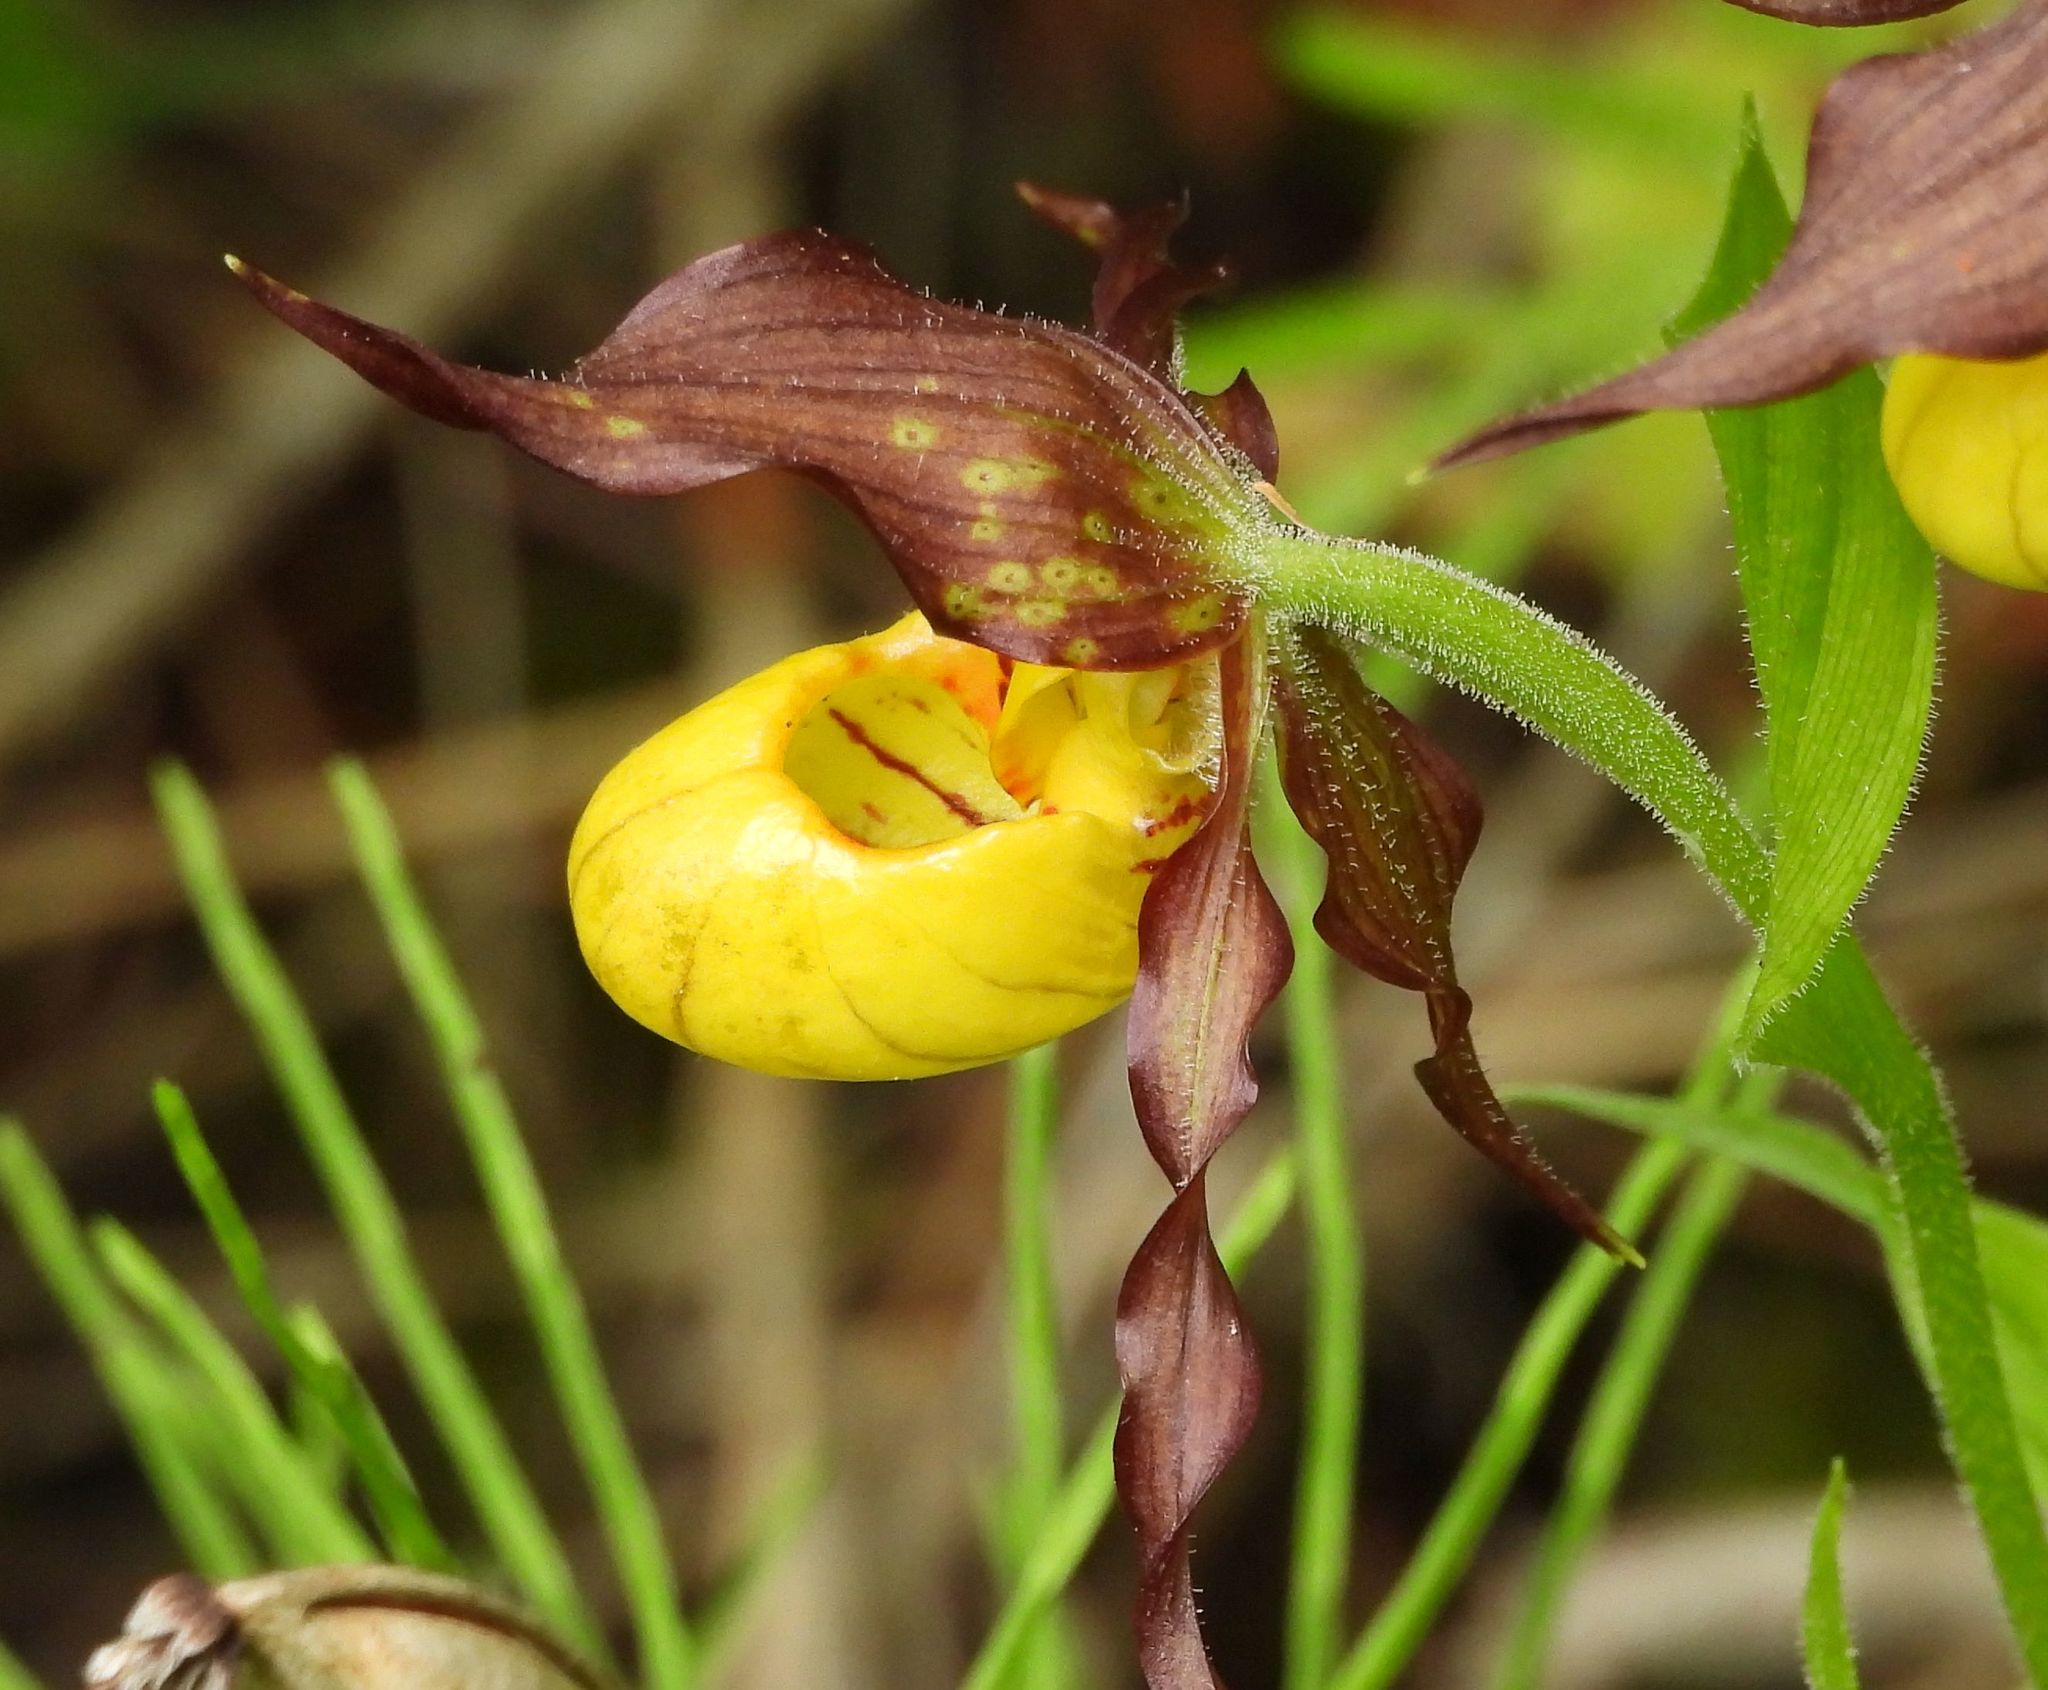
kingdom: Plantae
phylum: Tracheophyta
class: Liliopsida
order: Asparagales
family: Orchidaceae
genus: Cypripedium
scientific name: Cypripedium parviflorum
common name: American yellow lady's-slipper
